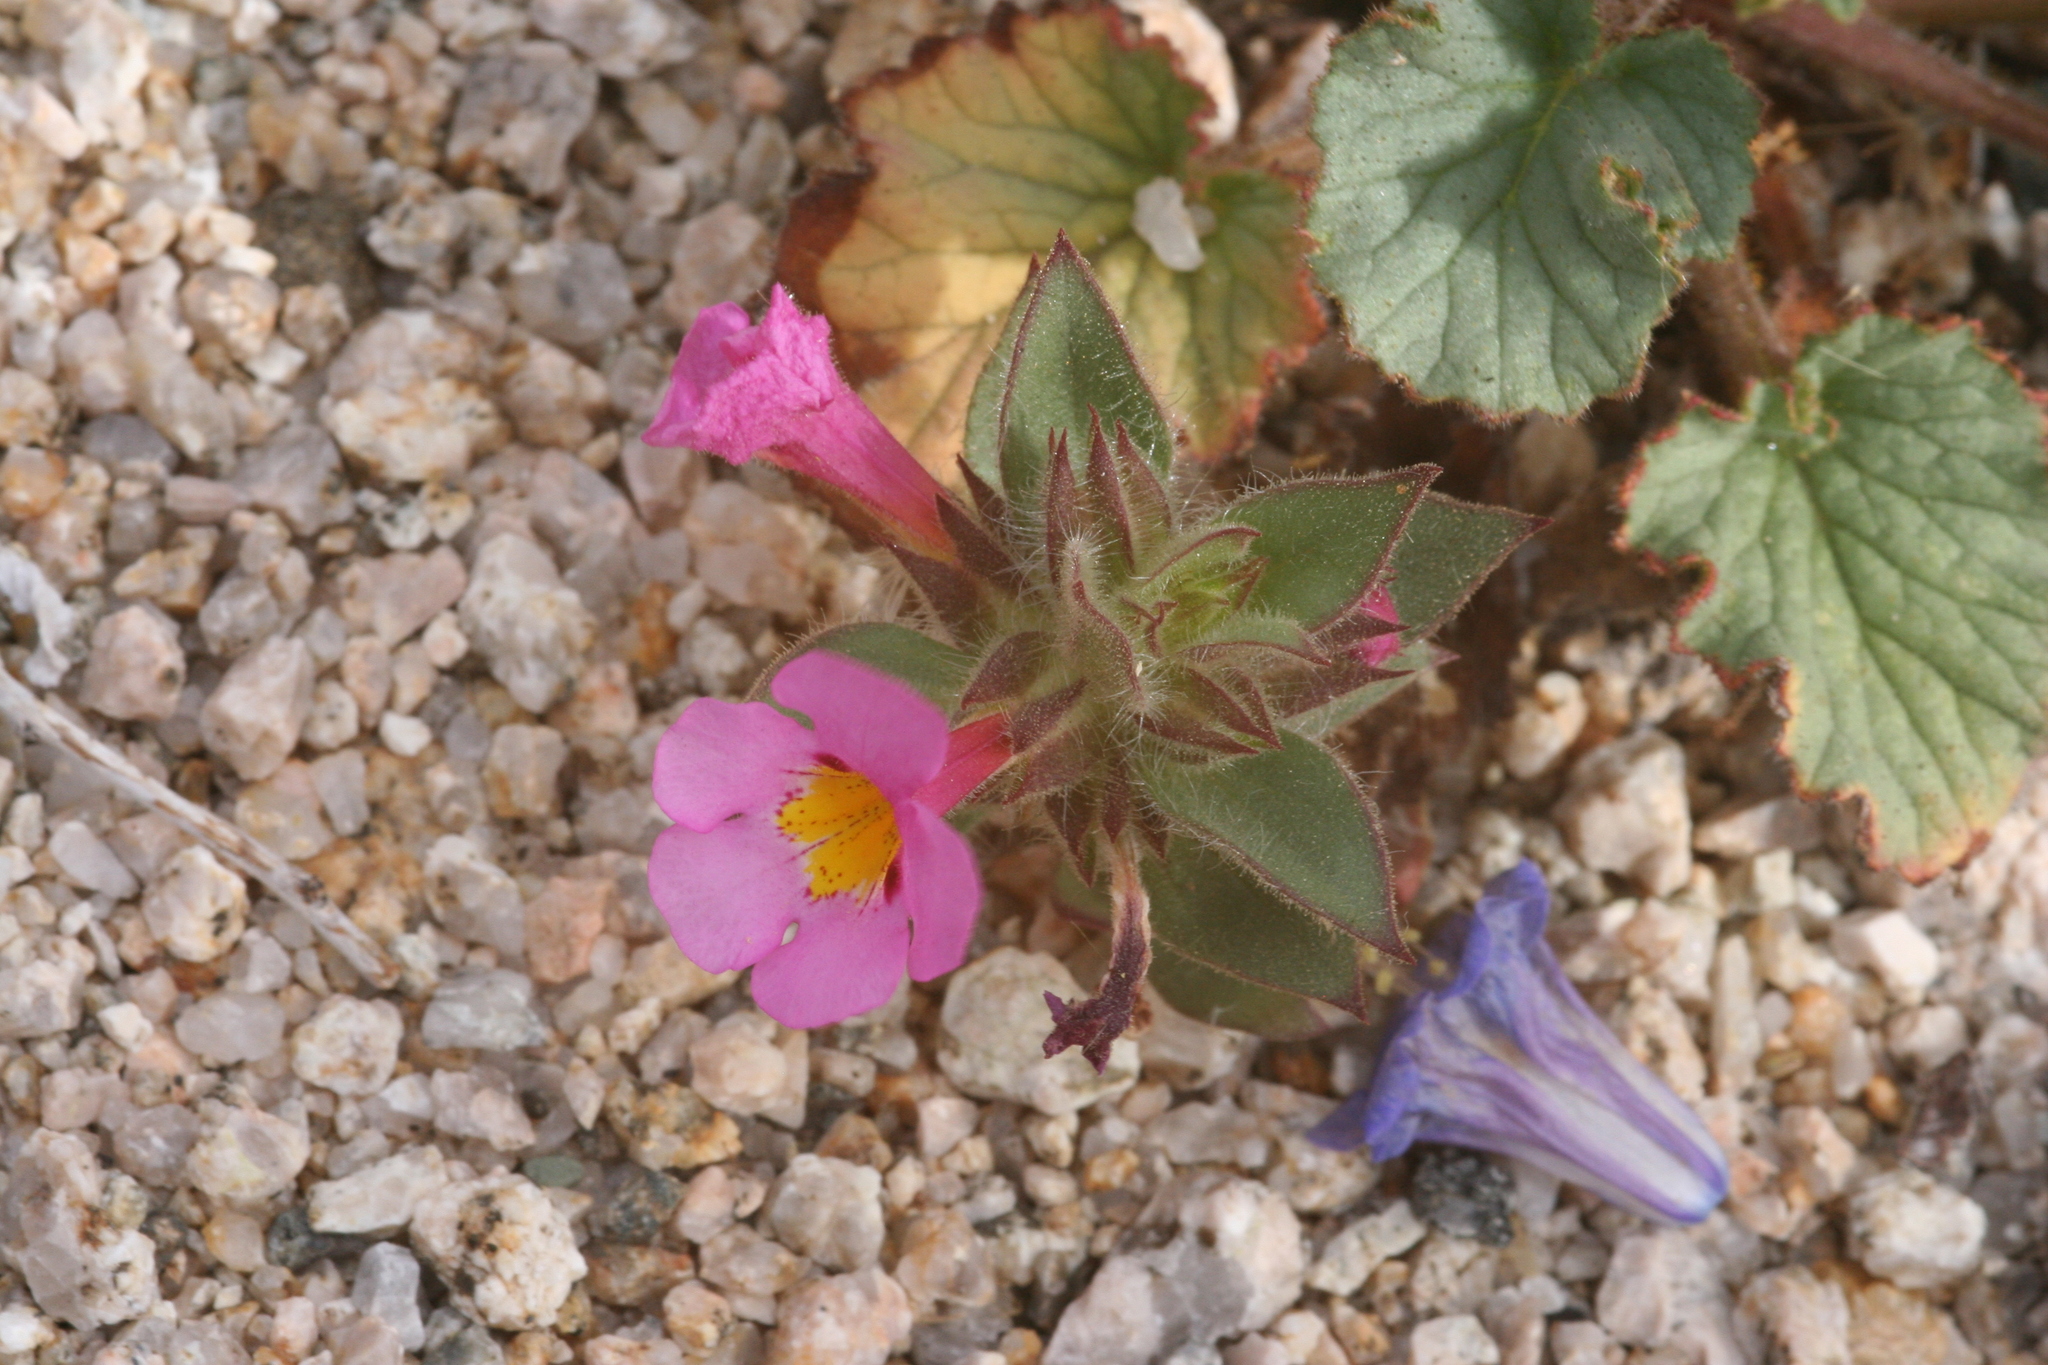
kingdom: Plantae
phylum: Tracheophyta
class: Magnoliopsida
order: Lamiales
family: Phrymaceae
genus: Diplacus
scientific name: Diplacus bigelovii
